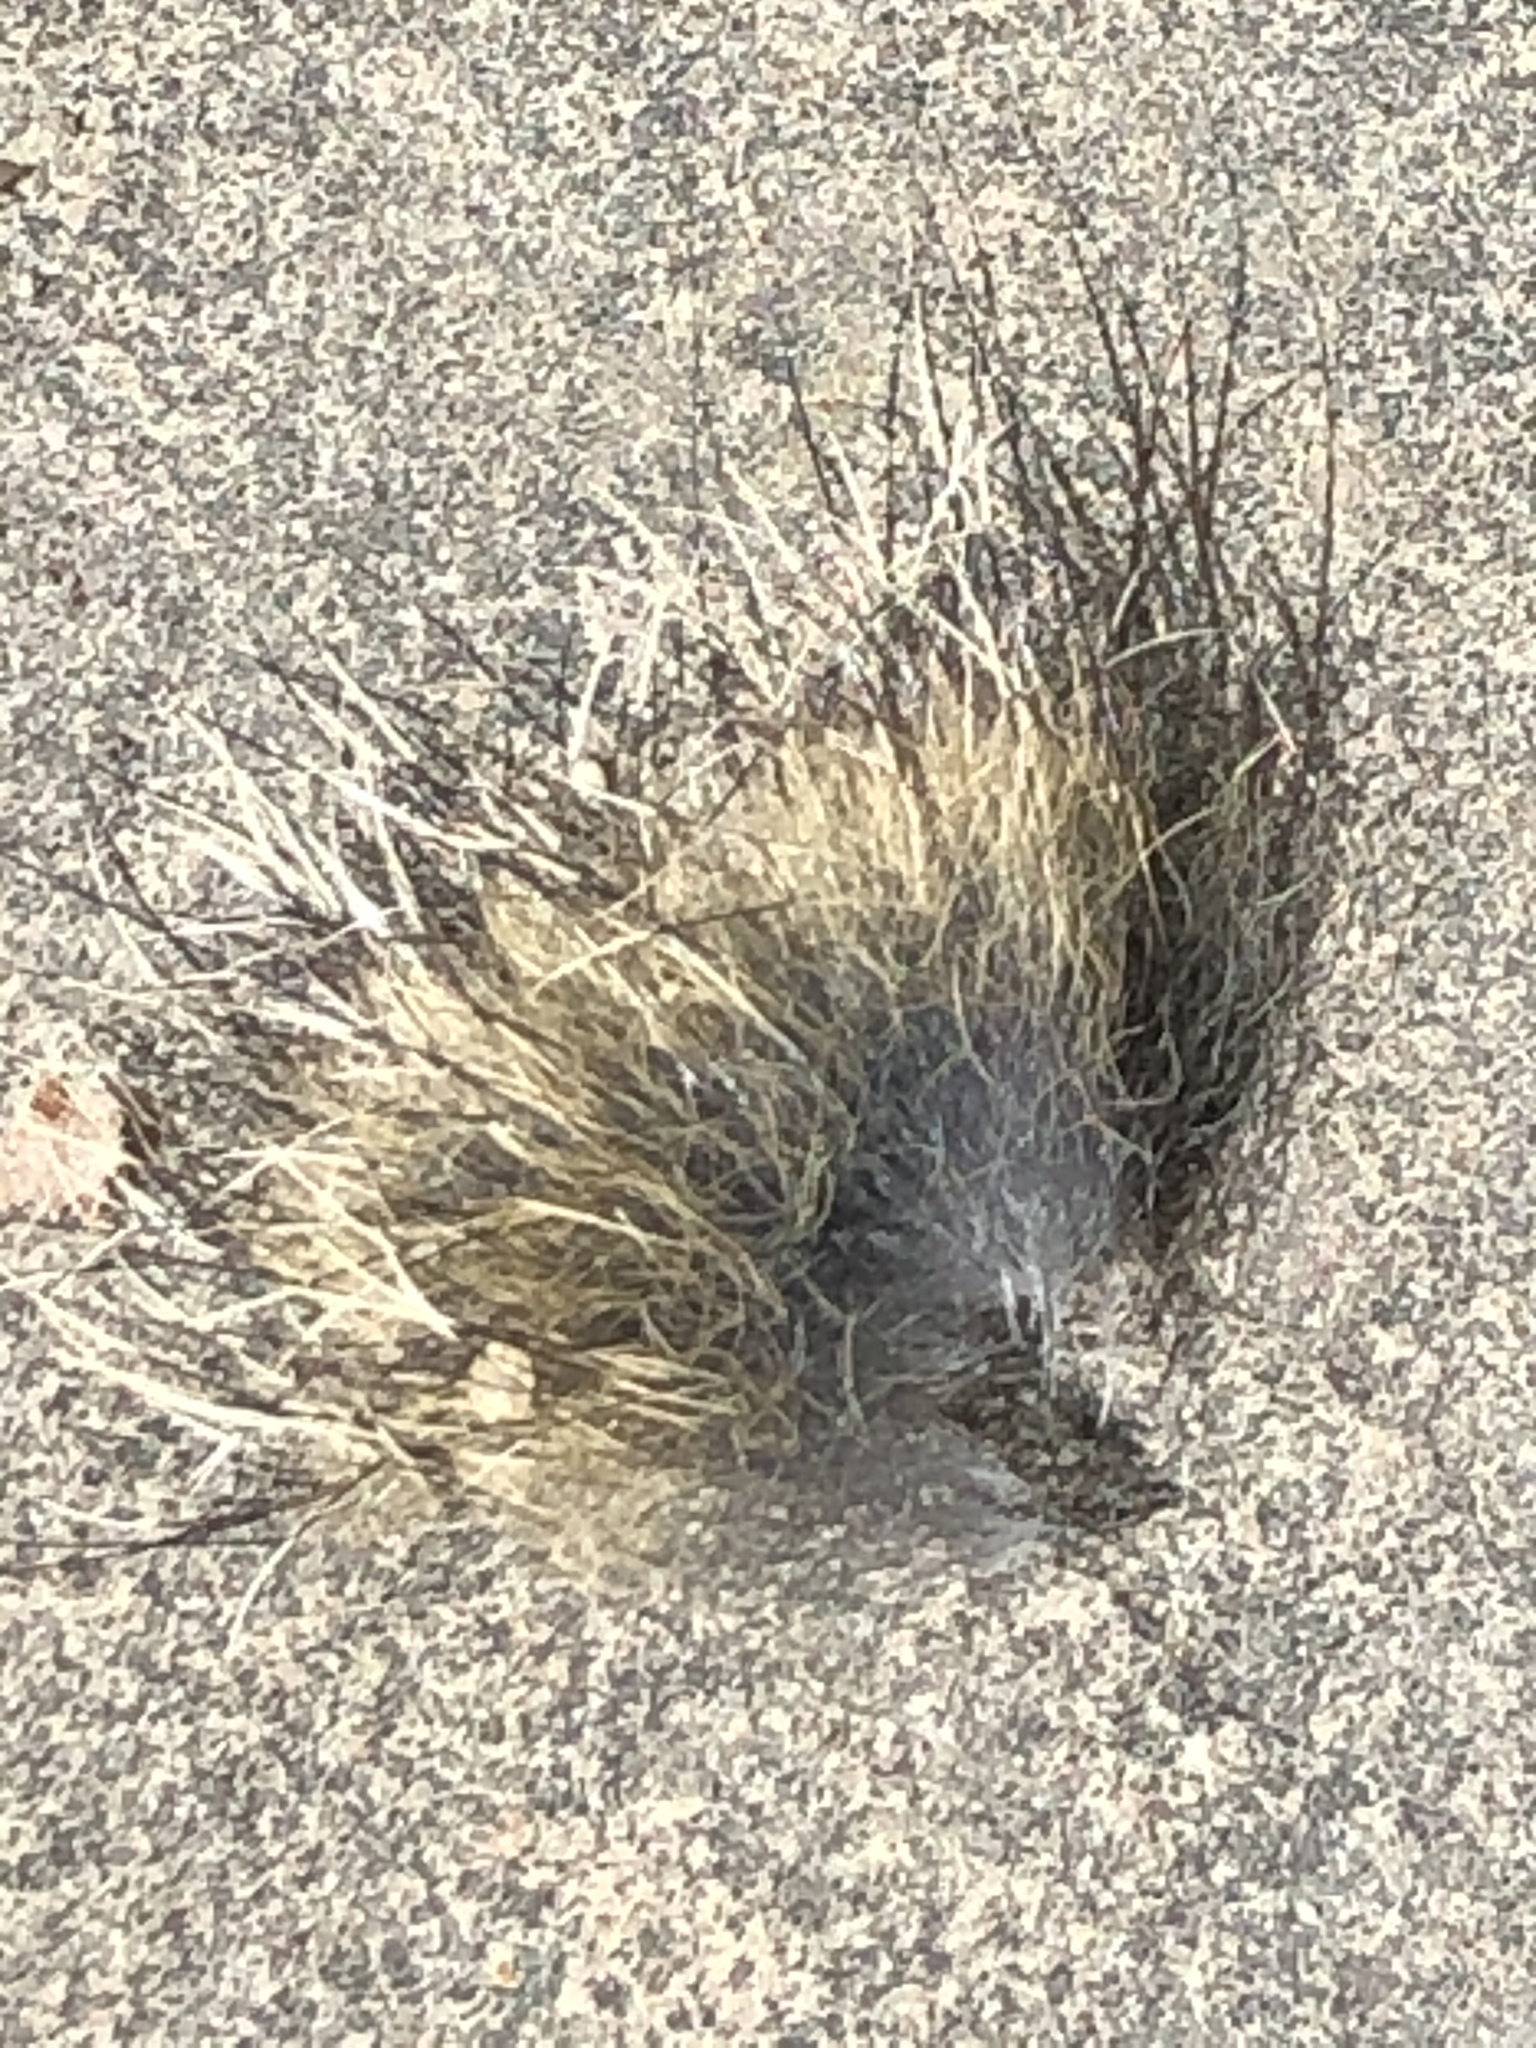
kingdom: Animalia
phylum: Chordata
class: Mammalia
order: Carnivora
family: Procyonidae
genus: Procyon
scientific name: Procyon lotor
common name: Raccoon
